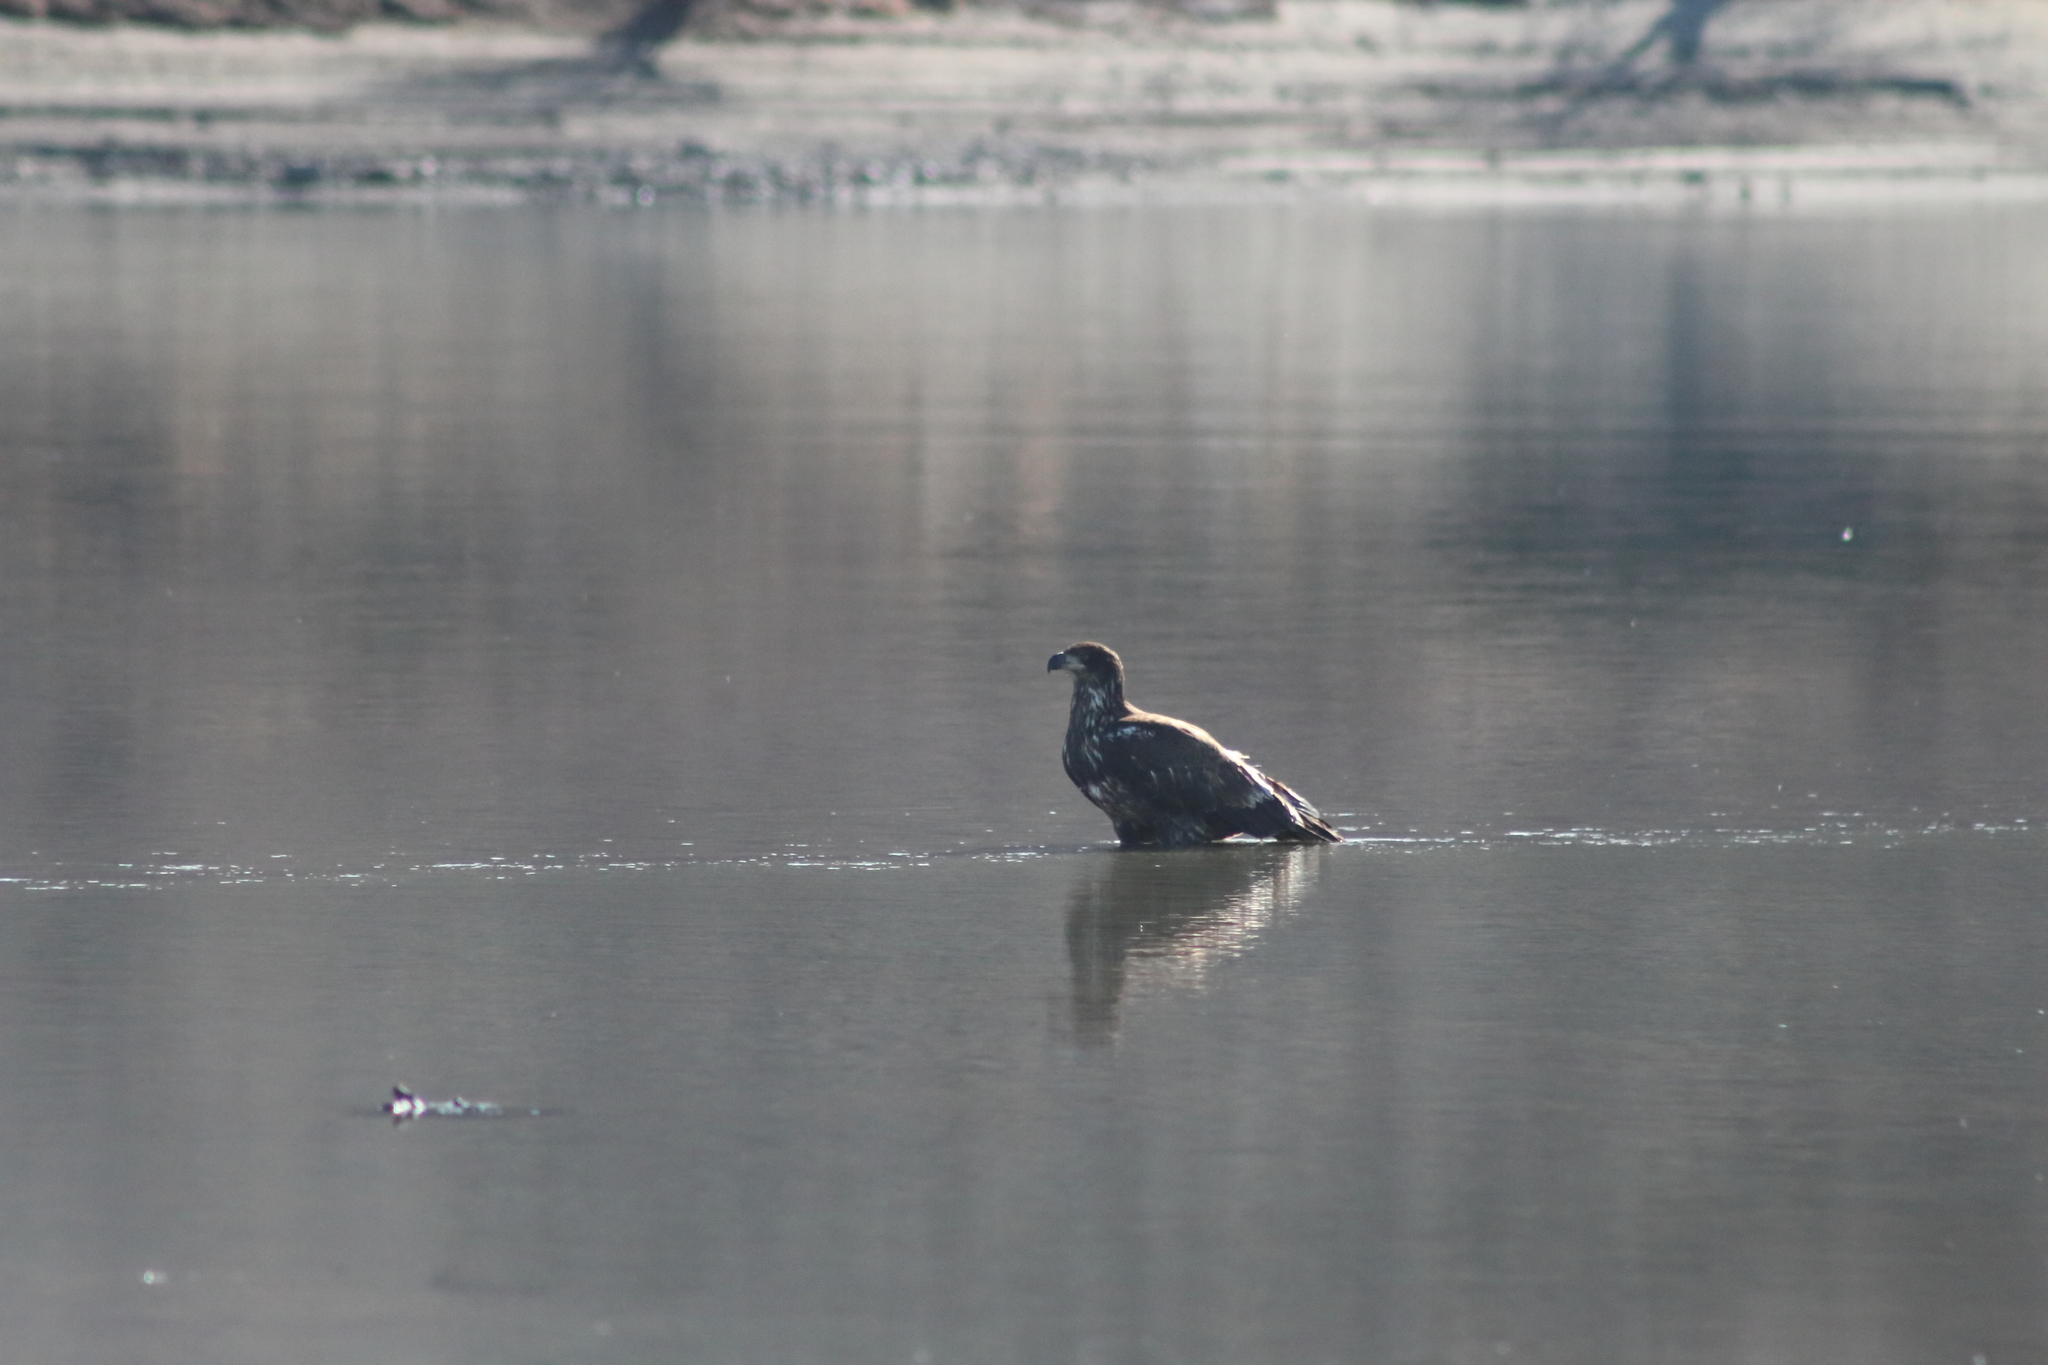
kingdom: Animalia
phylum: Chordata
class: Aves
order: Accipitriformes
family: Accipitridae
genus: Haliaeetus
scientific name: Haliaeetus leucocephalus
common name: Bald eagle
